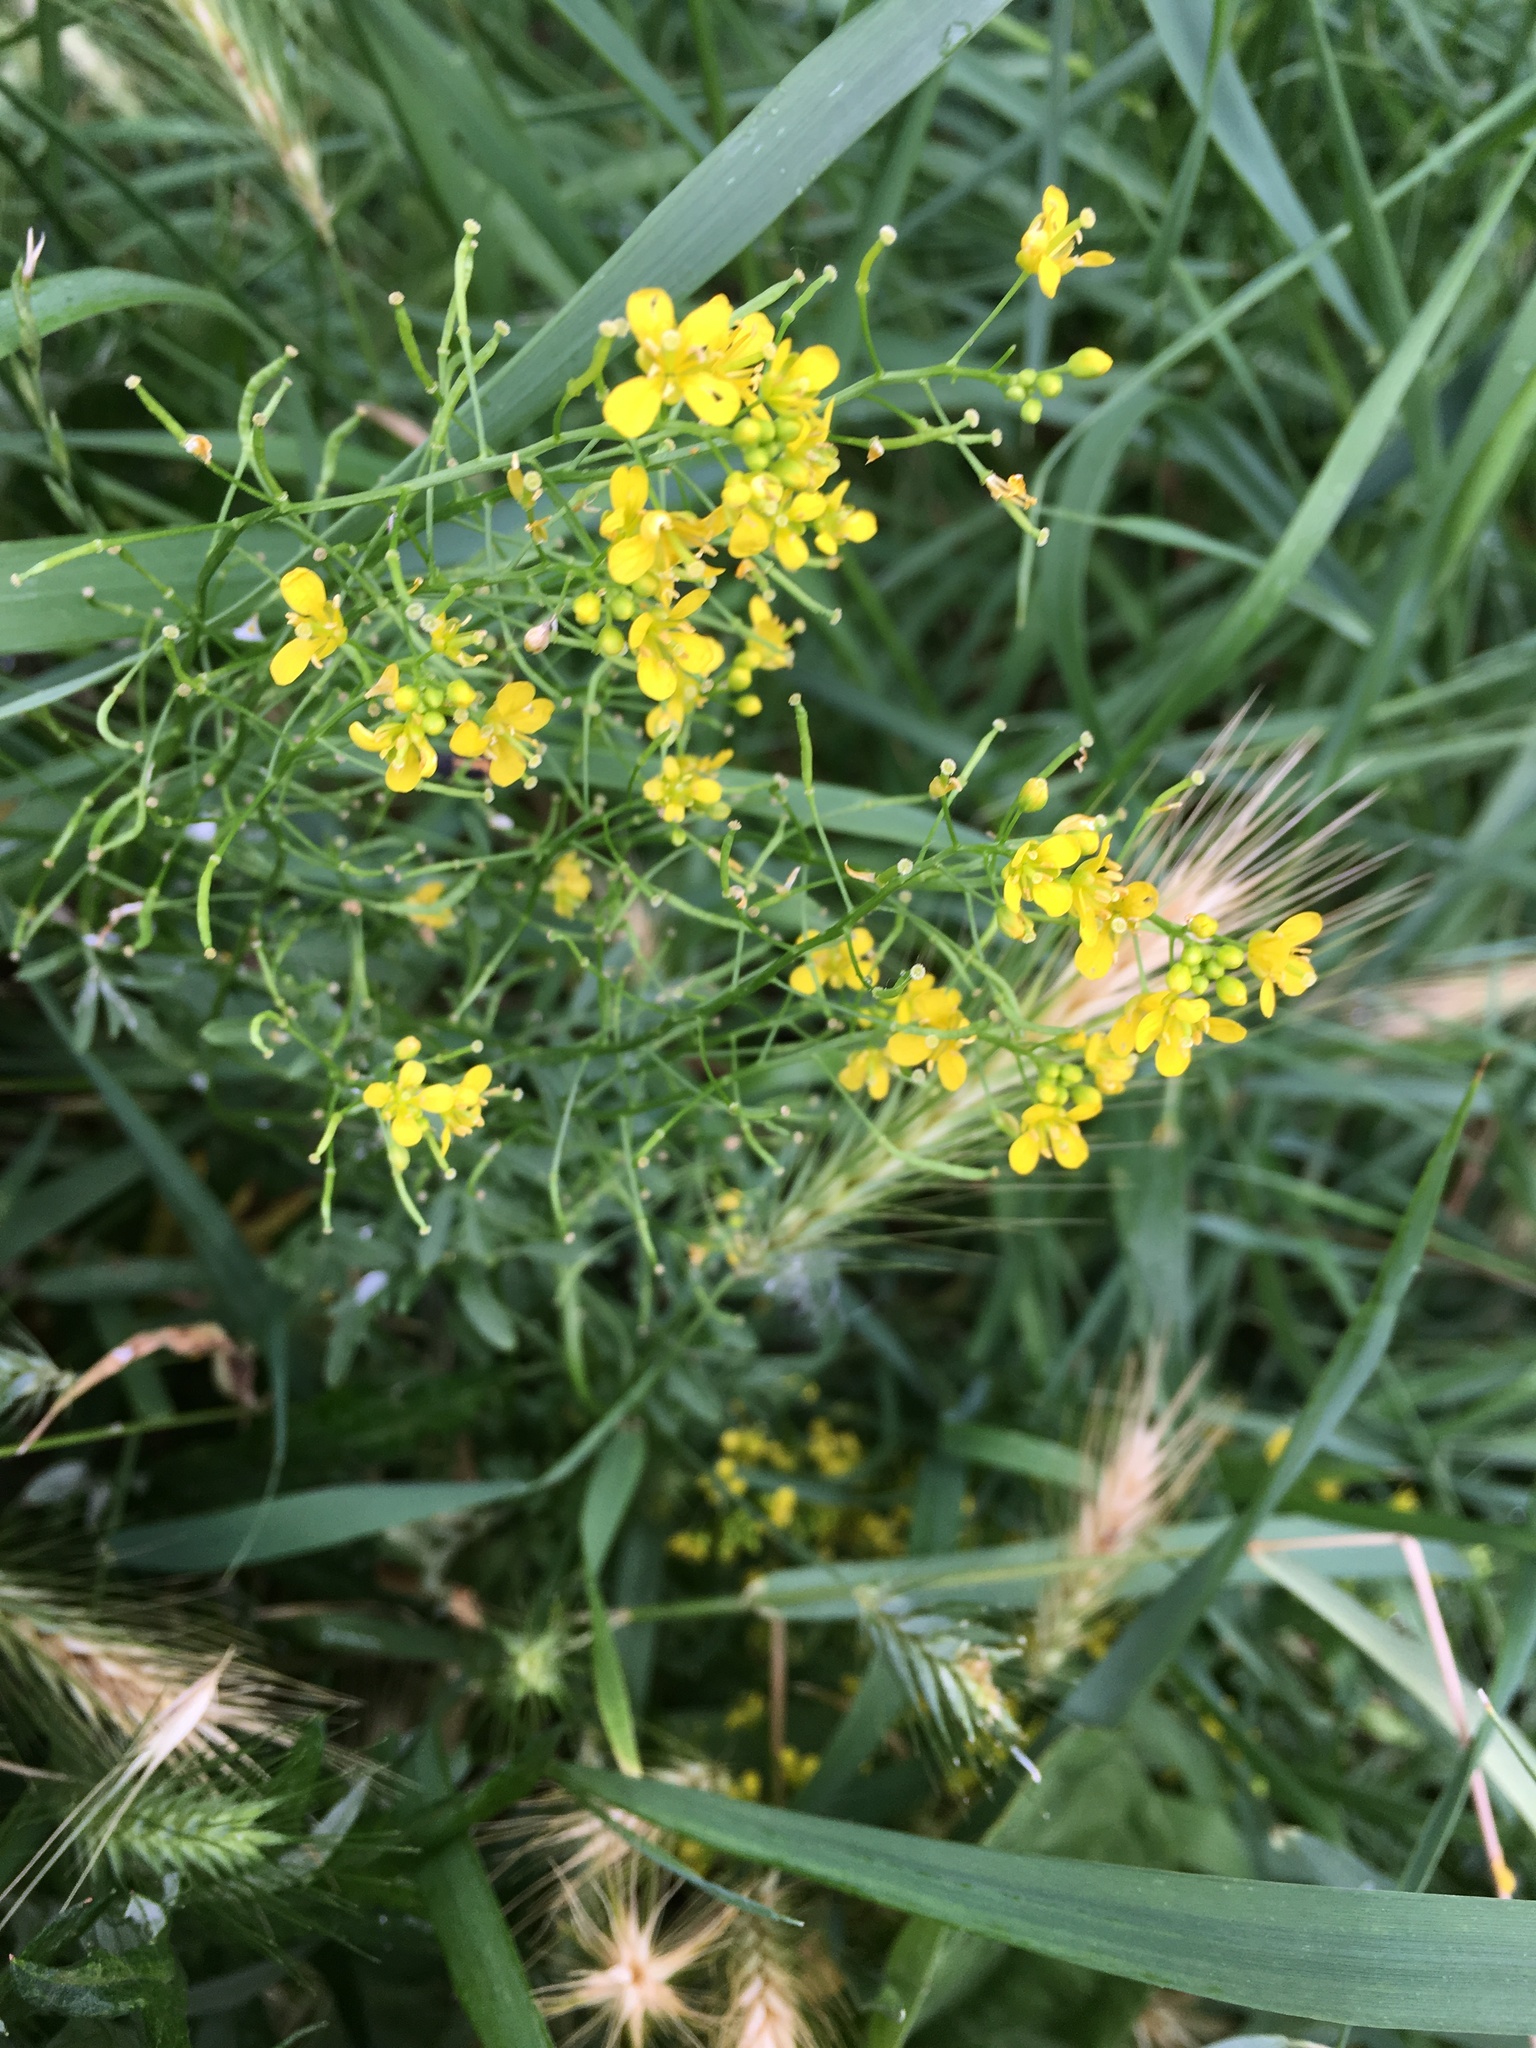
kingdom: Plantae
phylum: Tracheophyta
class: Magnoliopsida
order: Brassicales
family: Brassicaceae
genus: Rorippa
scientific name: Rorippa sylvestris
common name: Creeping yellowcress
